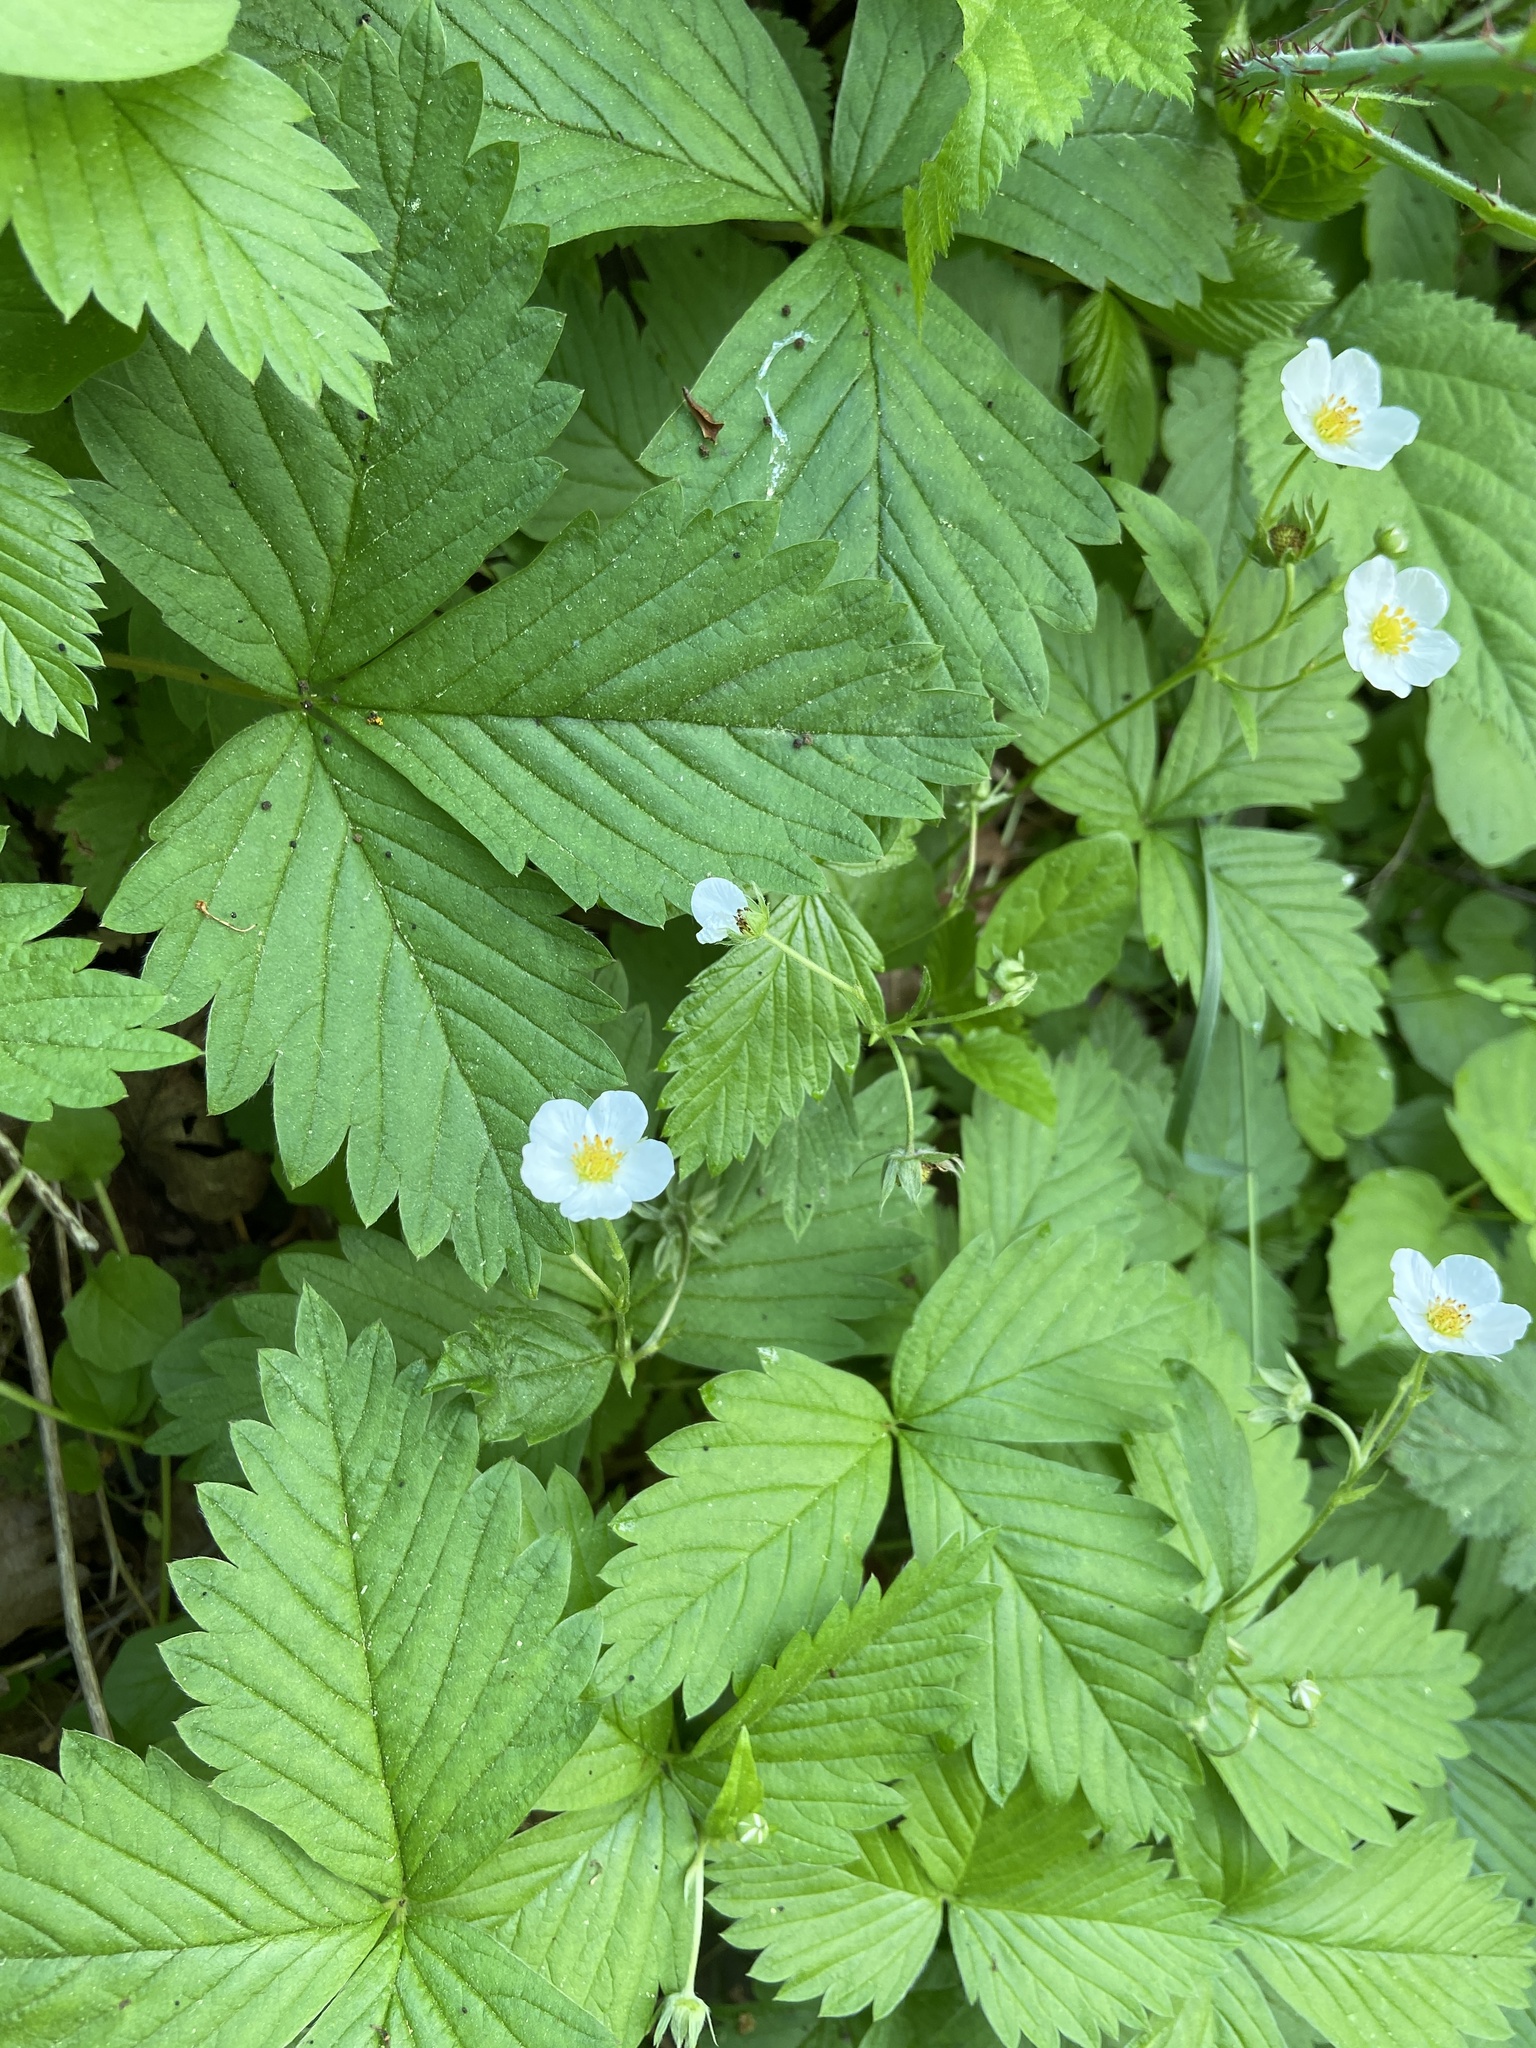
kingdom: Plantae
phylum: Tracheophyta
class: Magnoliopsida
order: Rosales
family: Rosaceae
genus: Fragaria
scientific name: Fragaria vesca
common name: Wild strawberry
